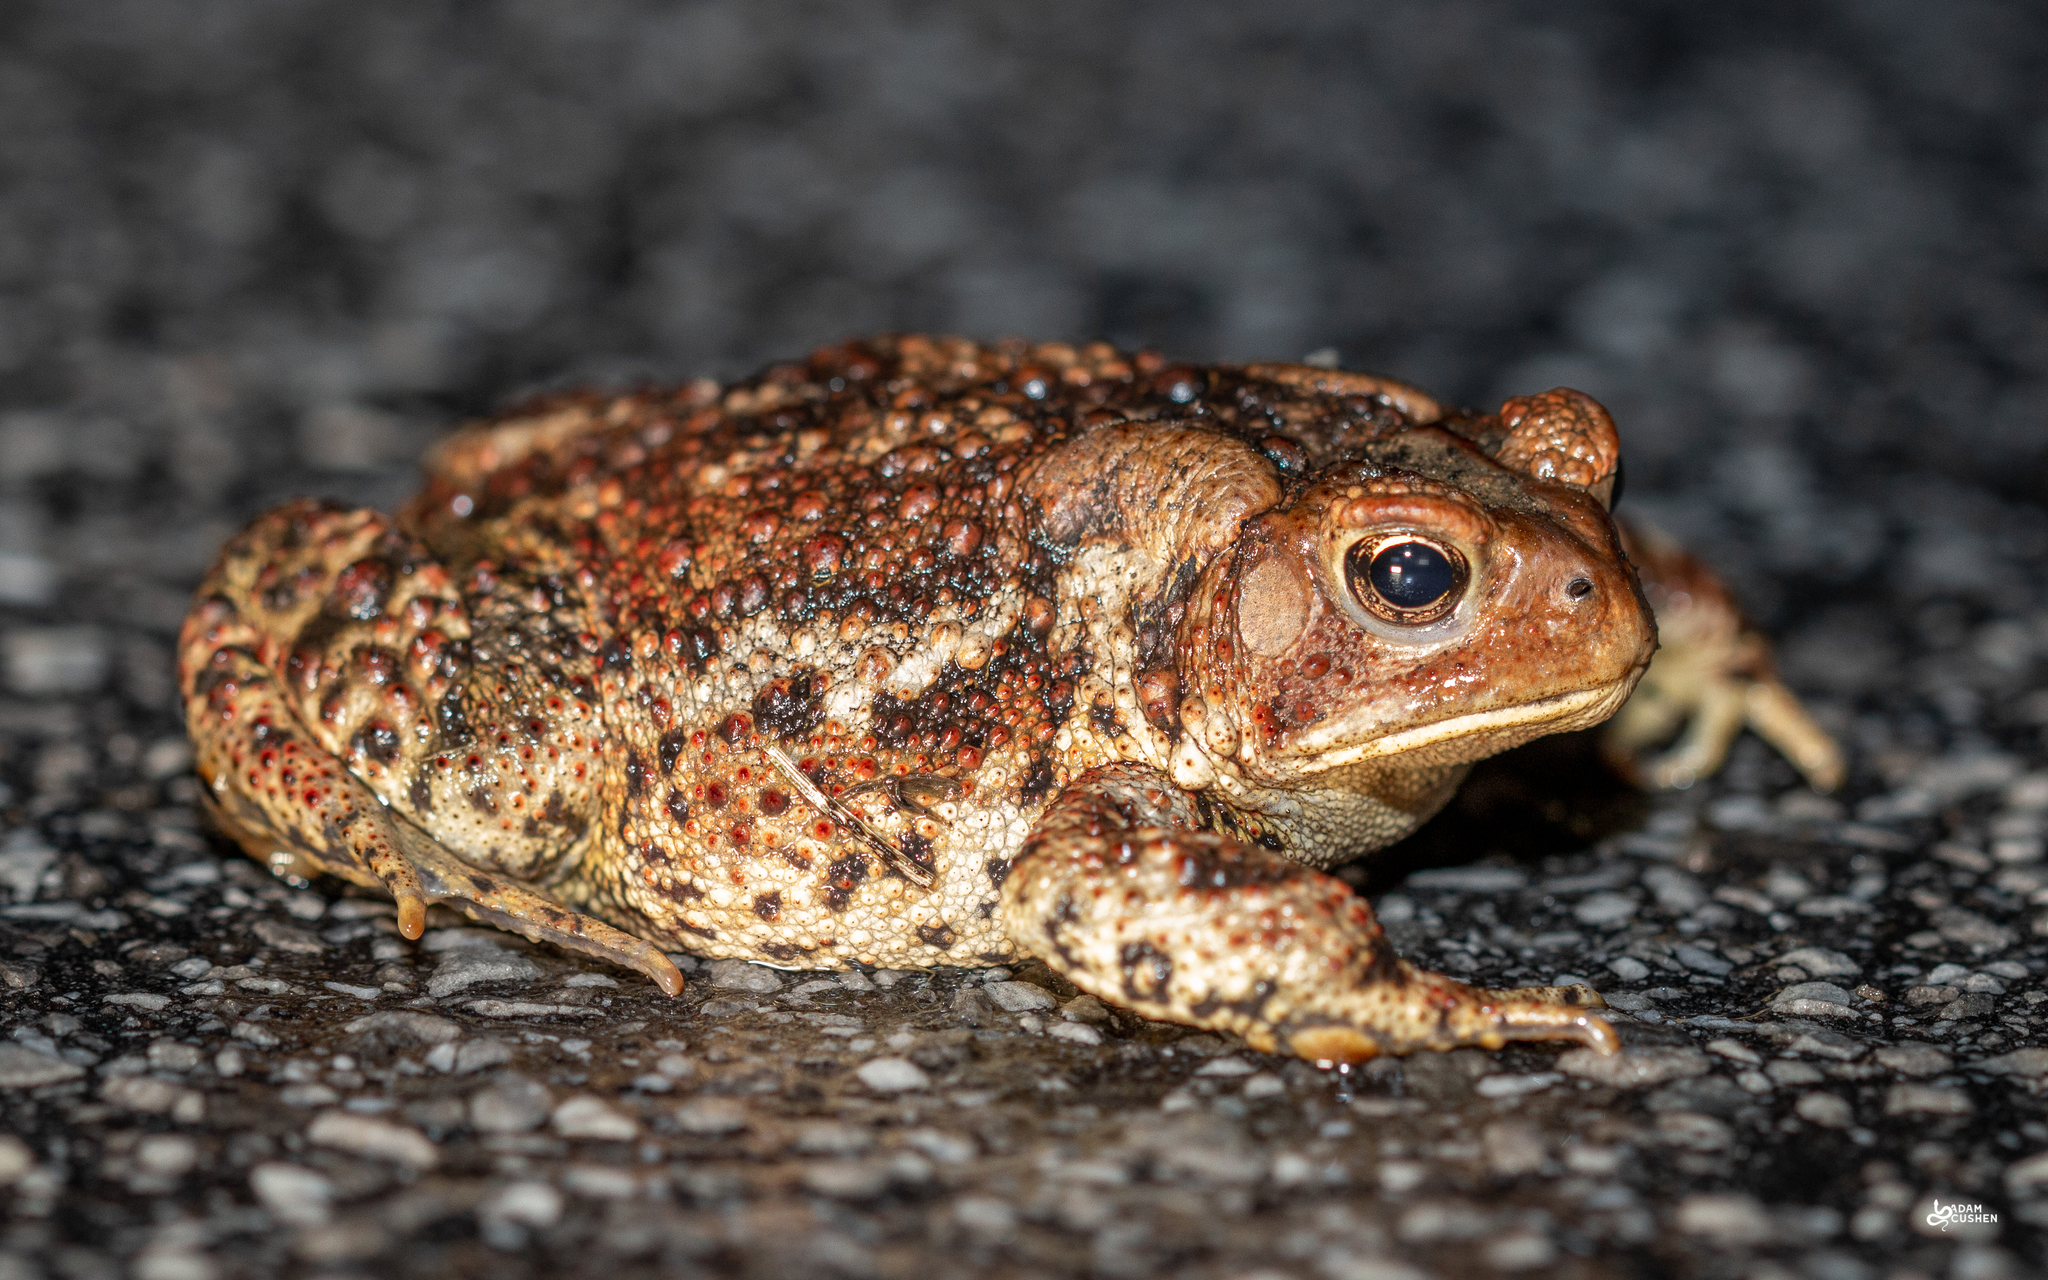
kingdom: Animalia
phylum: Chordata
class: Amphibia
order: Anura
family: Bufonidae
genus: Anaxyrus
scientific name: Anaxyrus americanus
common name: American toad
